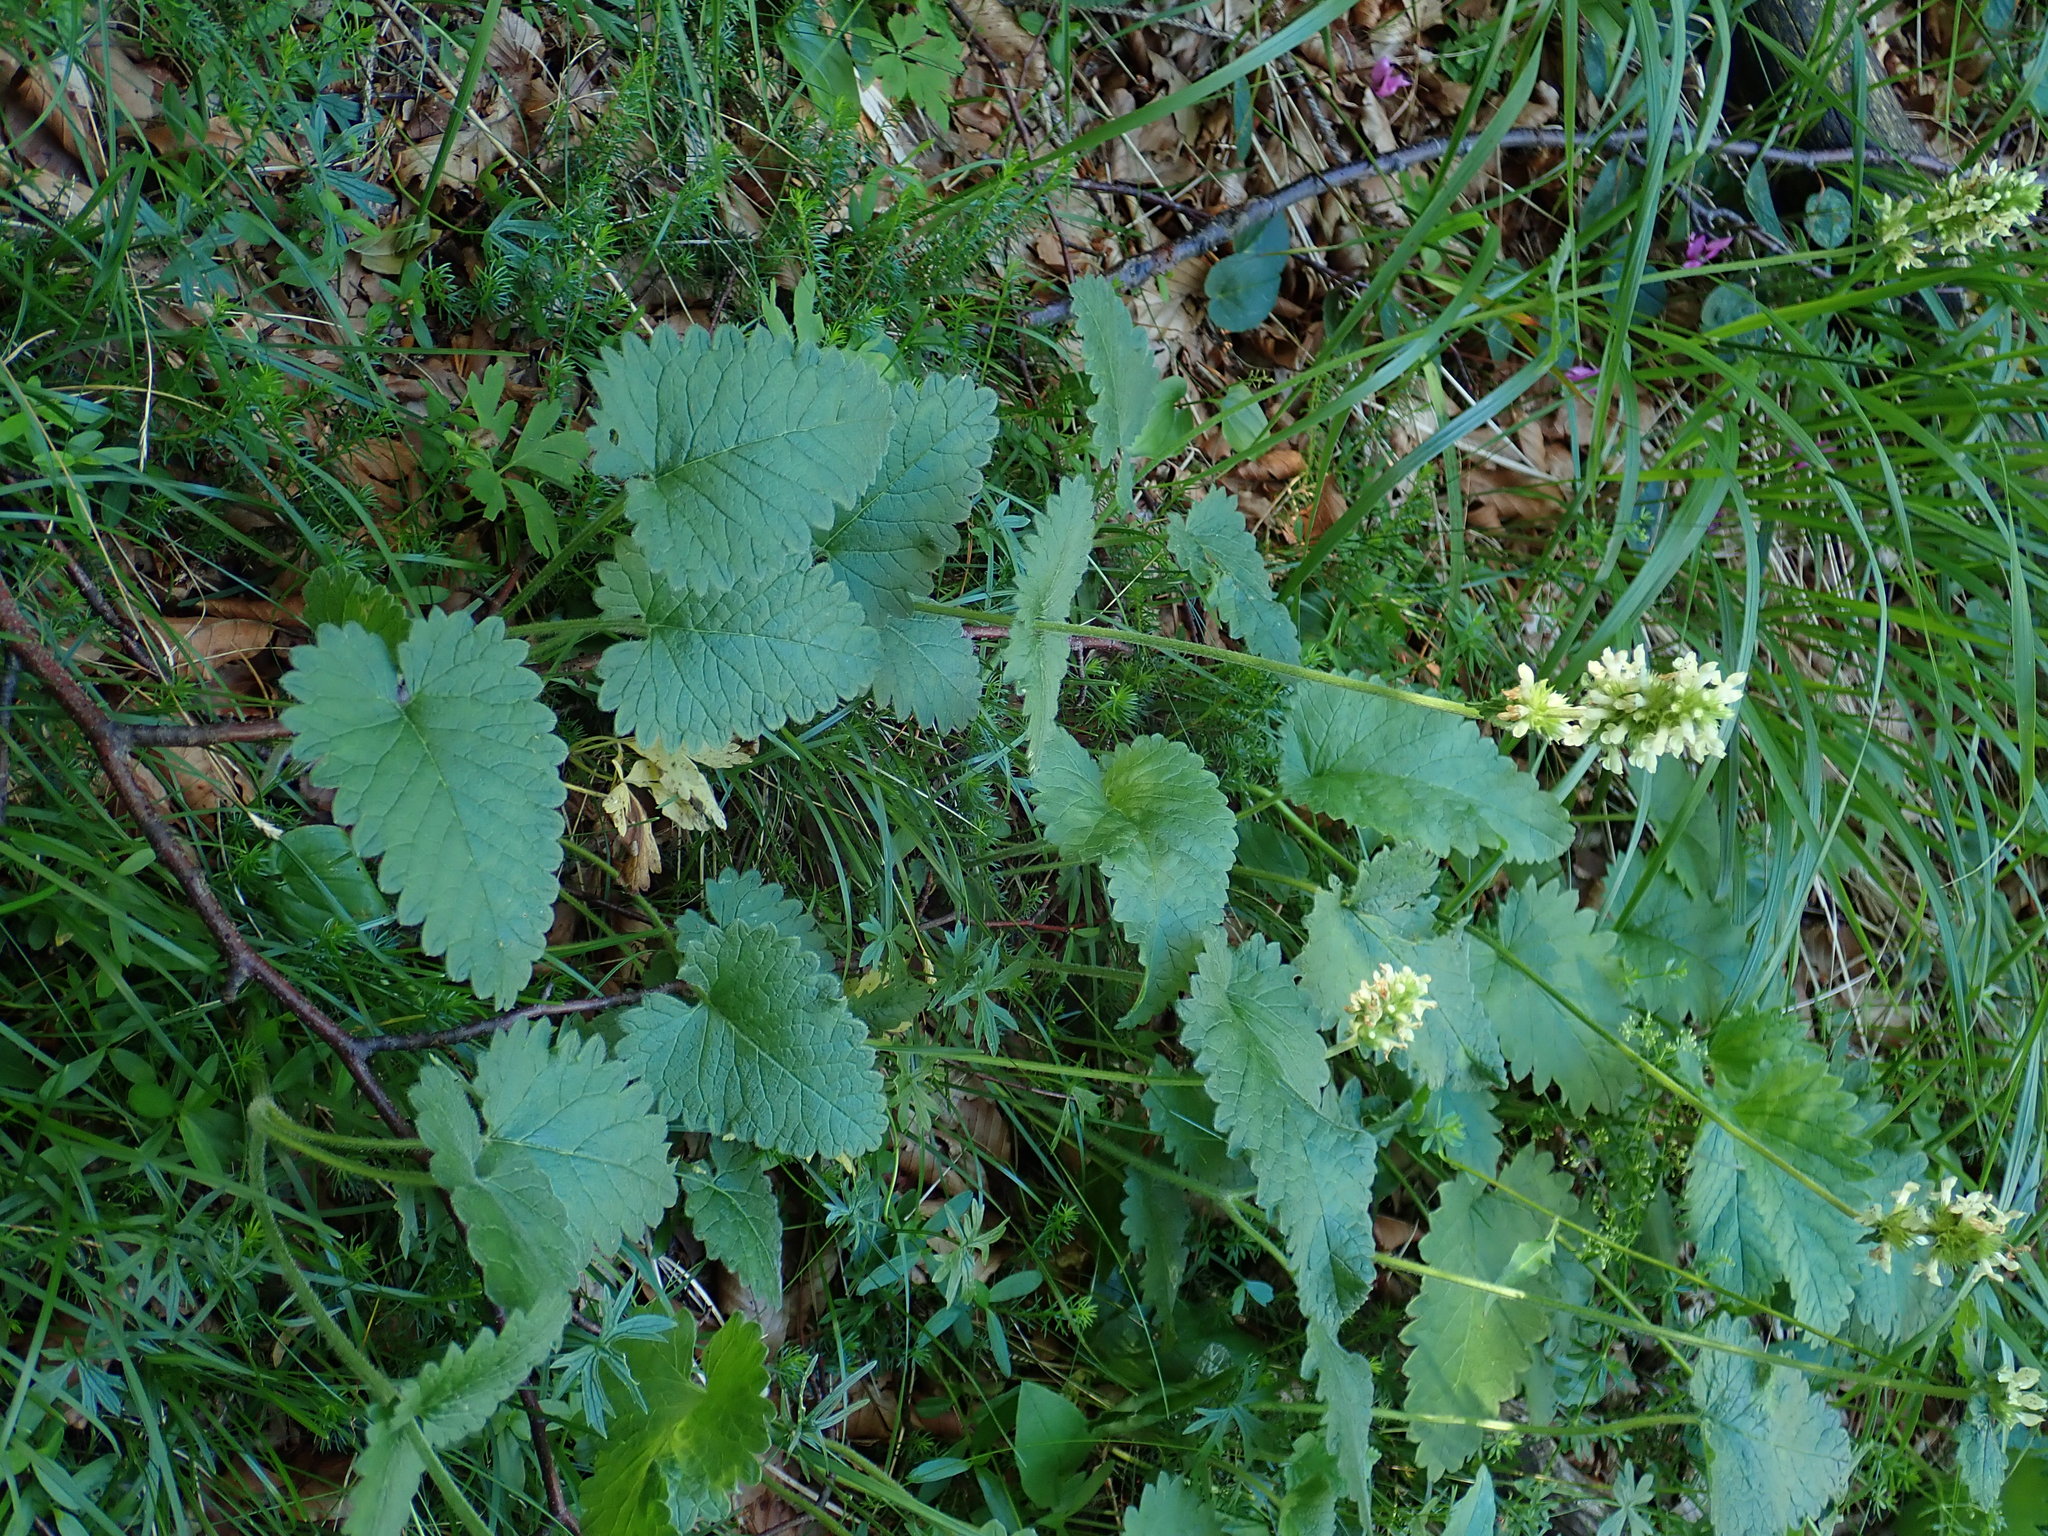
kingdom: Plantae
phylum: Tracheophyta
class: Magnoliopsida
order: Lamiales
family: Lamiaceae
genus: Betonica
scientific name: Betonica alopecuros
